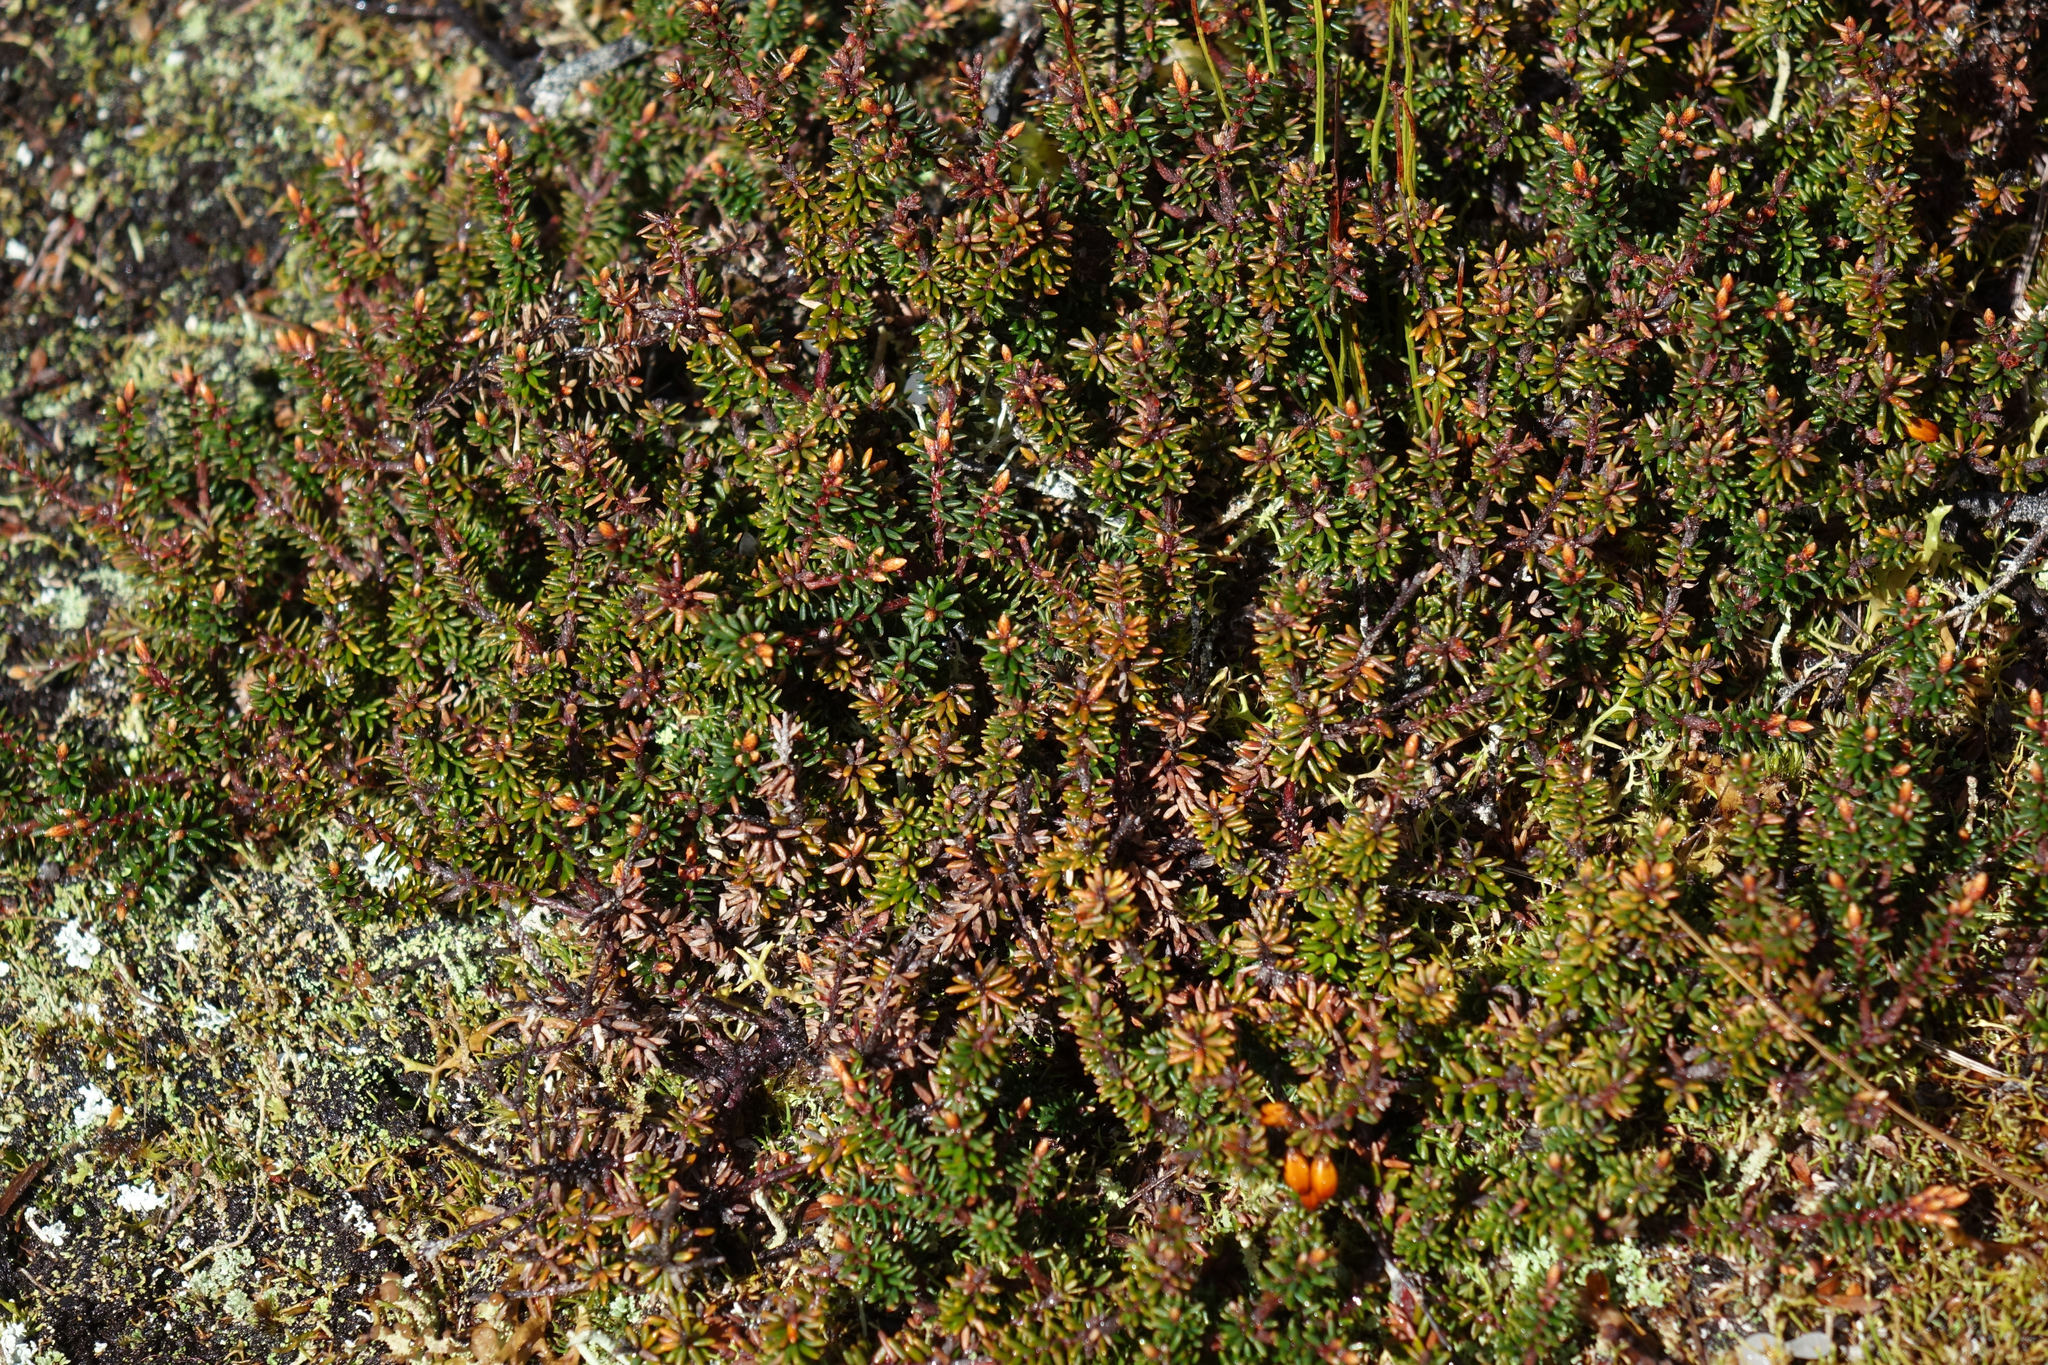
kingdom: Plantae
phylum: Tracheophyta
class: Magnoliopsida
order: Ericales
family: Ericaceae
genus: Androstoma
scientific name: Androstoma empetrifolia
